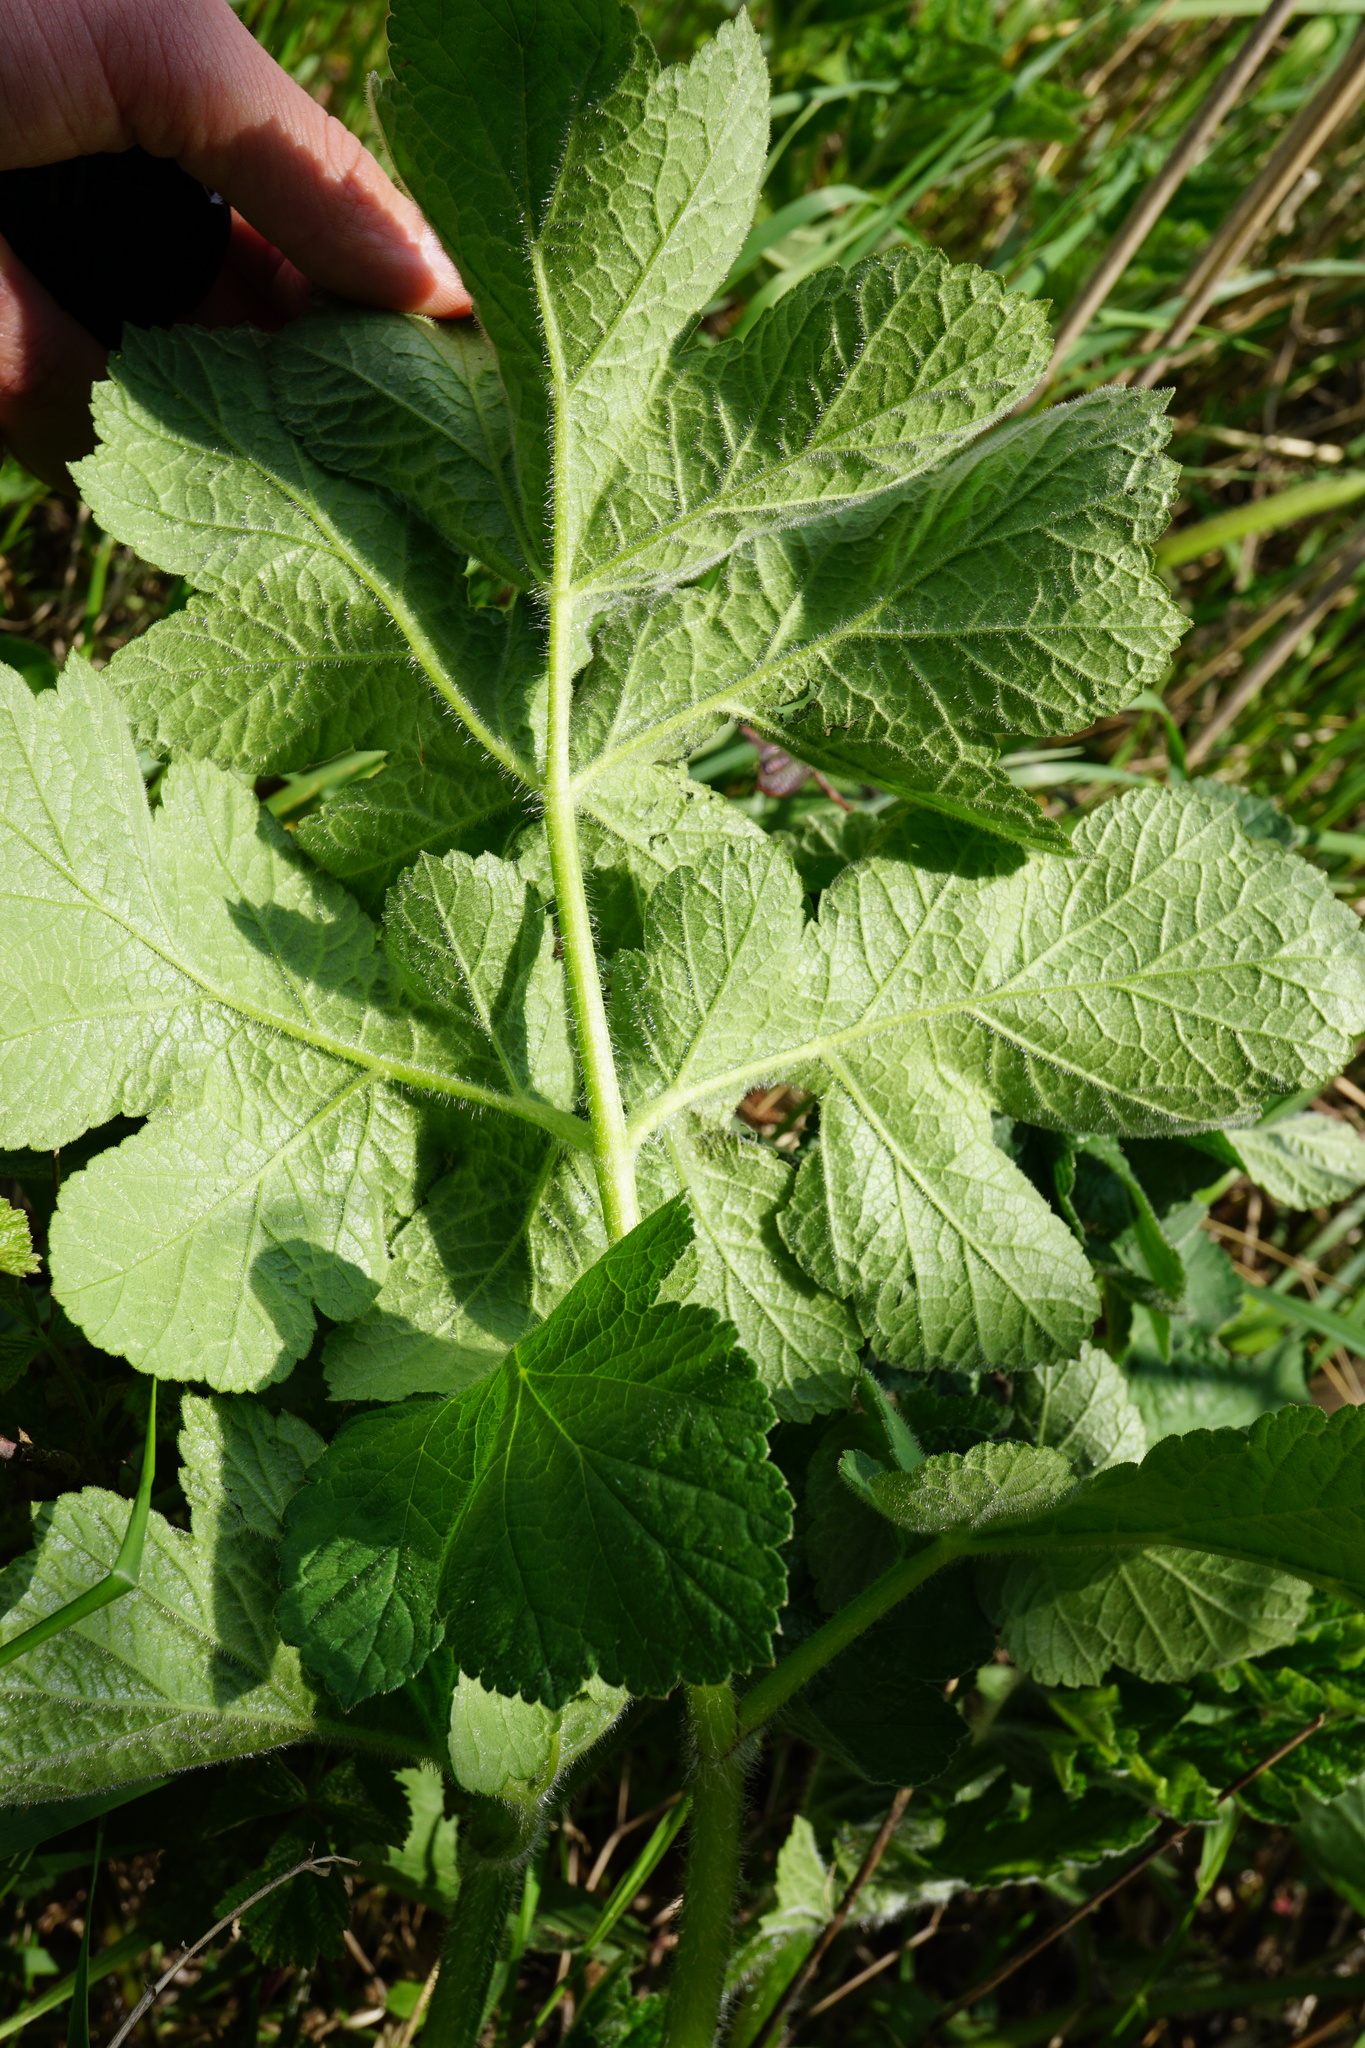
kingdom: Plantae
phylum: Tracheophyta
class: Magnoliopsida
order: Apiales
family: Apiaceae
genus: Heracleum
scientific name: Heracleum sphondylium
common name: Hogweed
